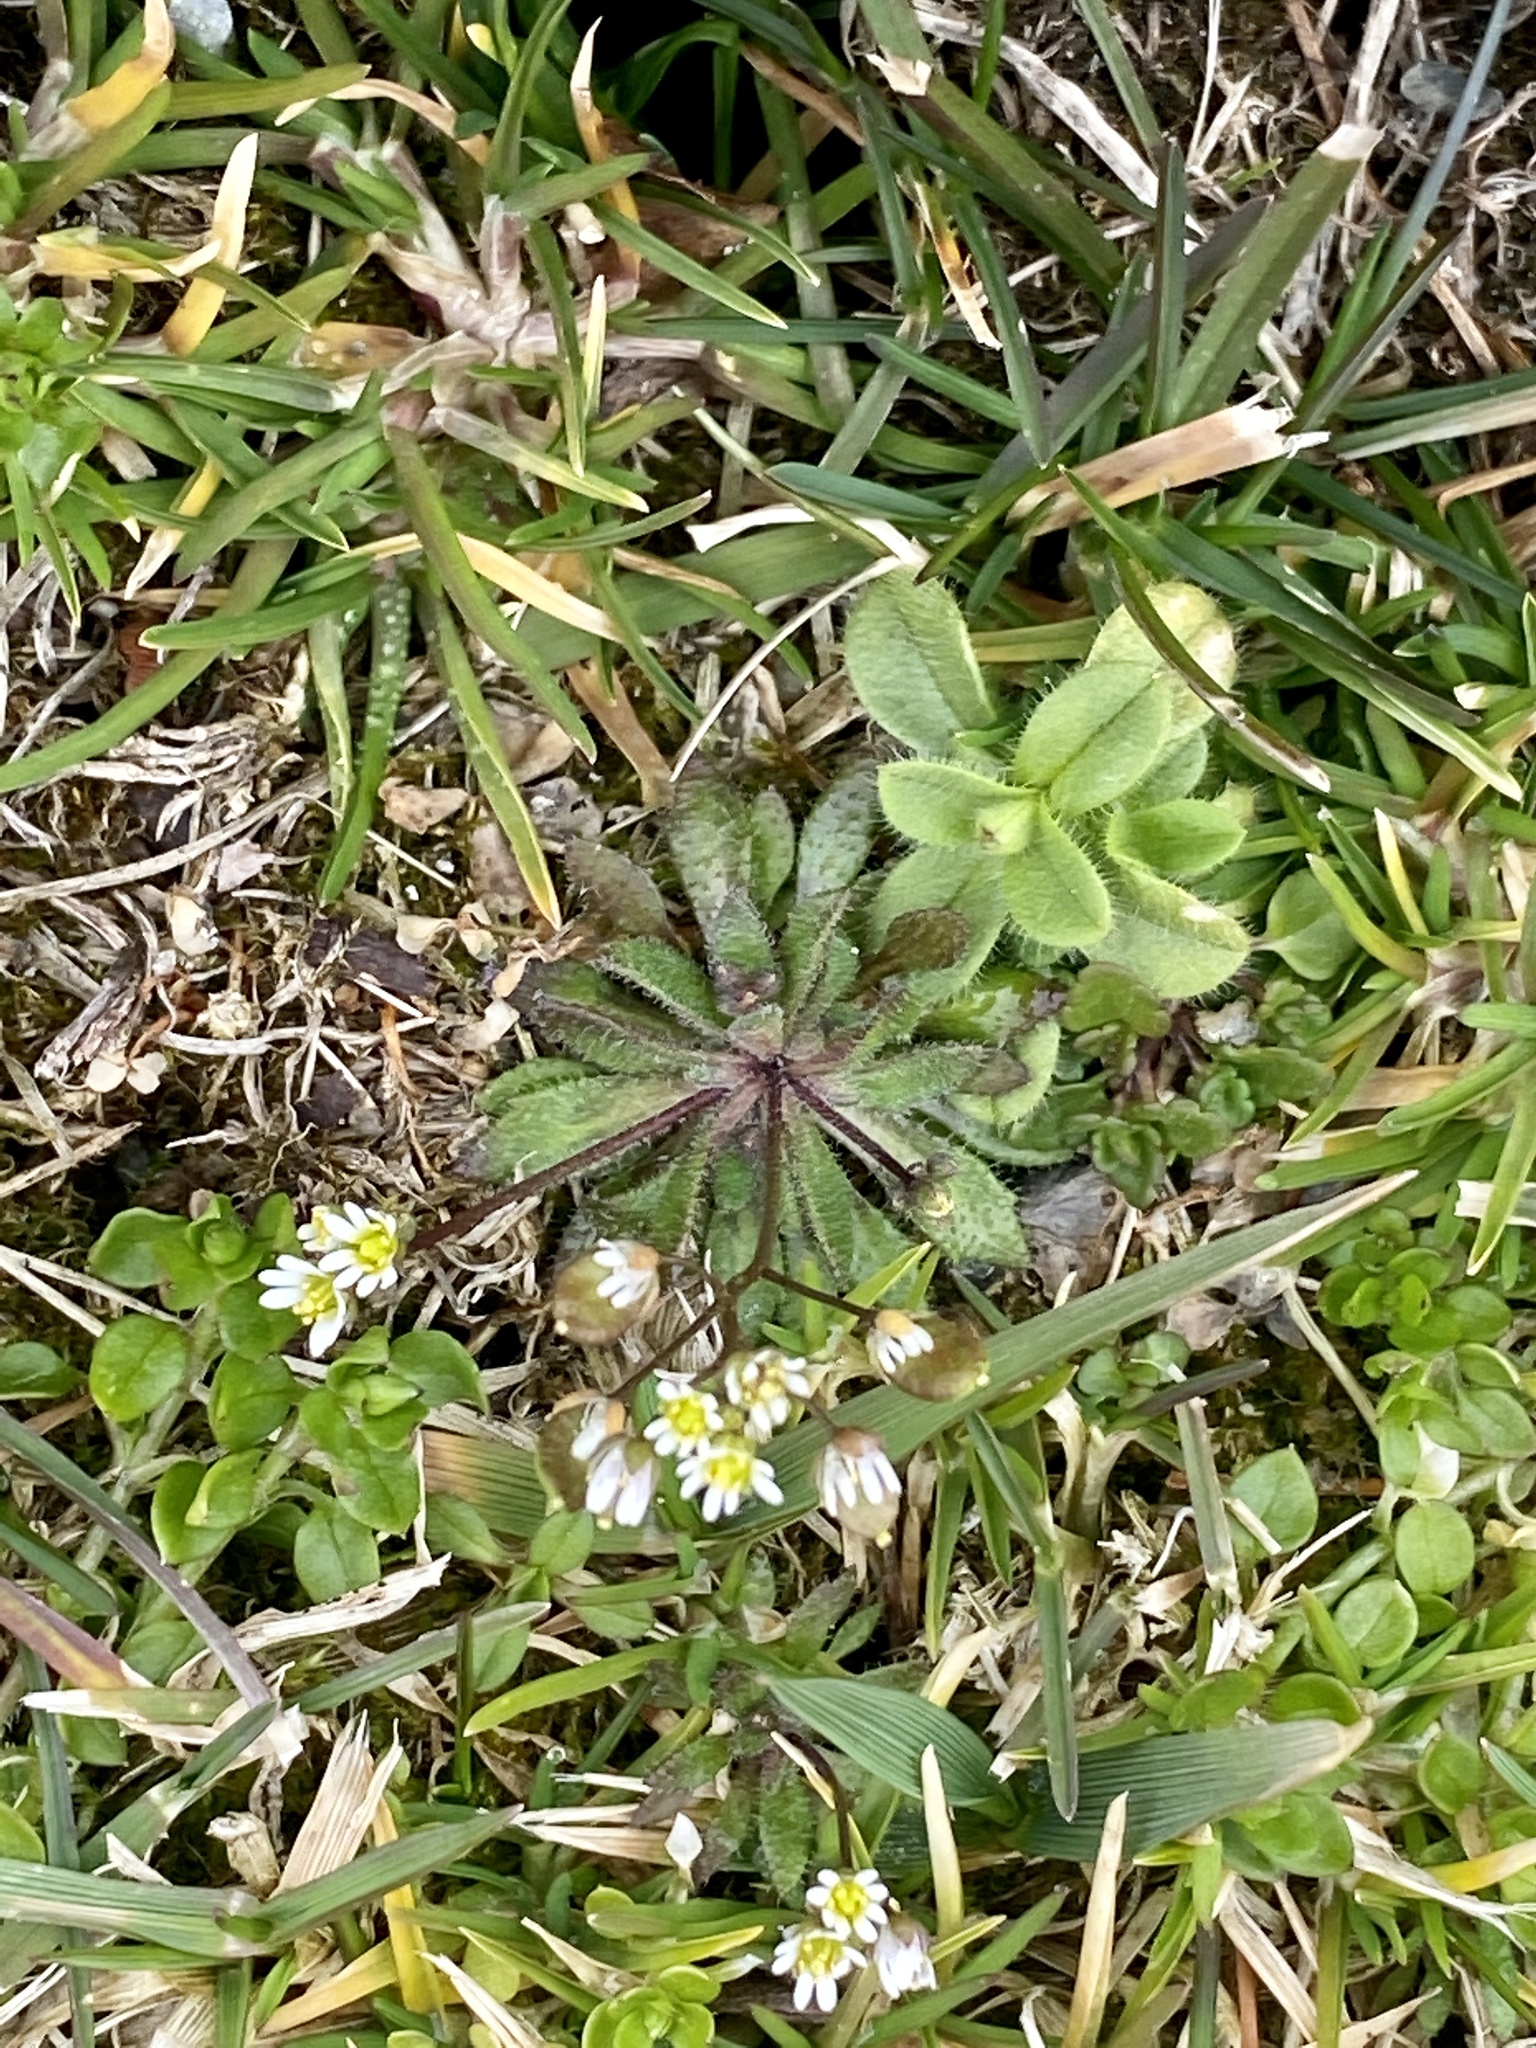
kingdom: Plantae
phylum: Tracheophyta
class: Magnoliopsida
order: Brassicales
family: Brassicaceae
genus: Draba
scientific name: Draba verna
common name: Spring draba
